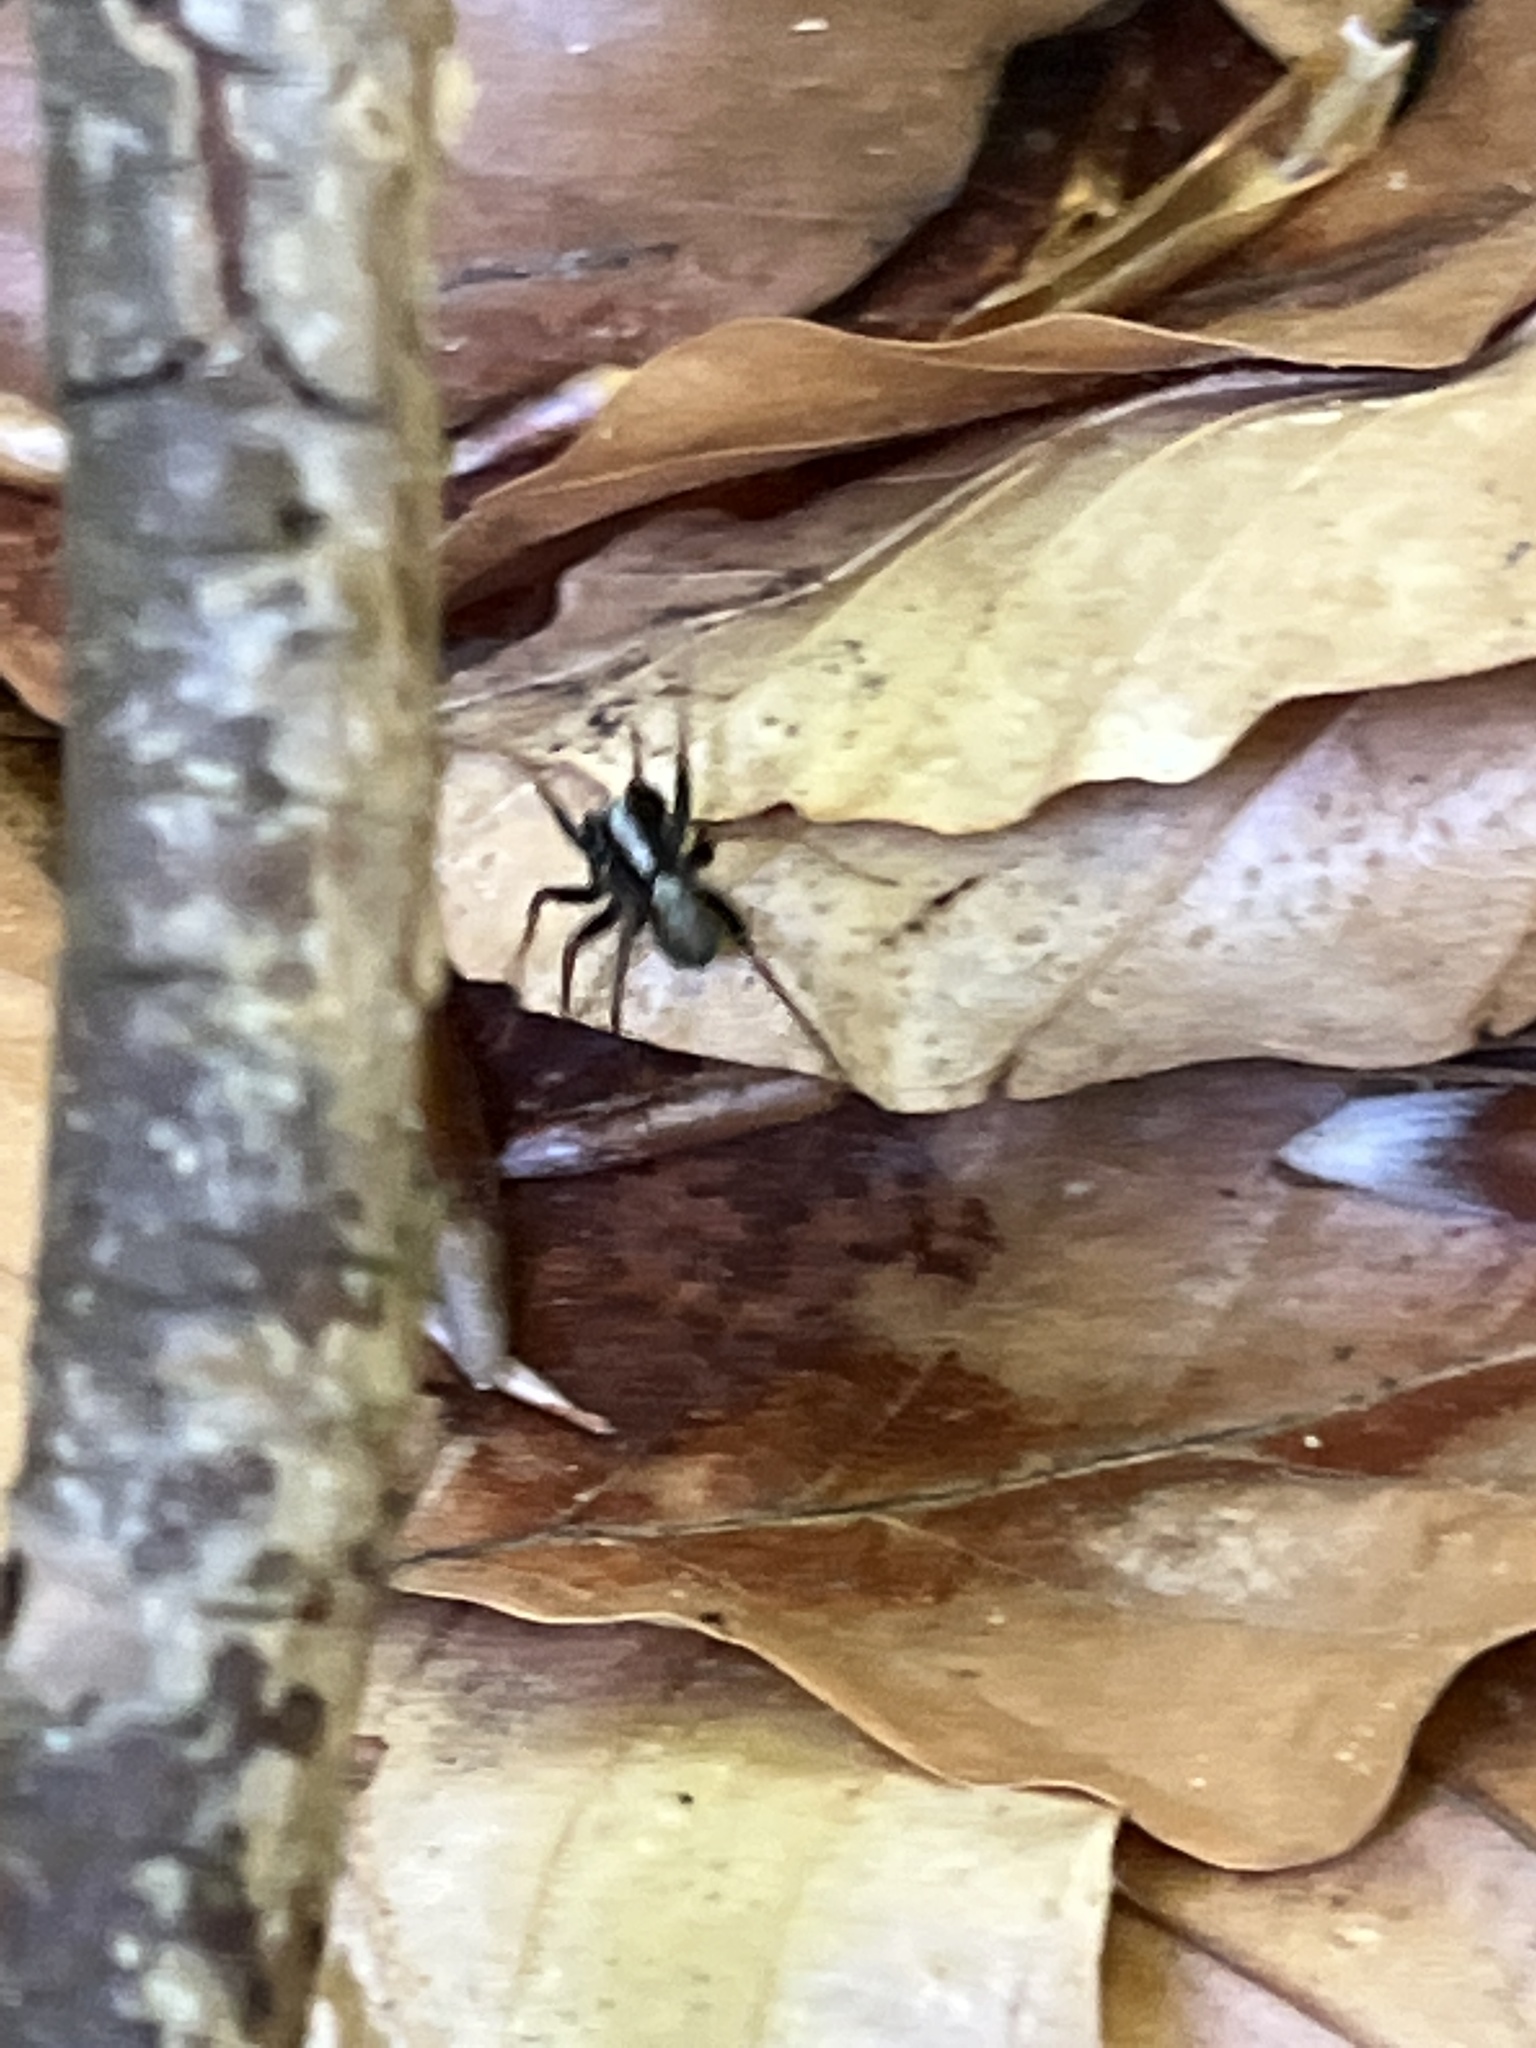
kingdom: Animalia
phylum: Arthropoda
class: Arachnida
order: Araneae
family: Lycosidae
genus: Pardosa
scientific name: Pardosa
